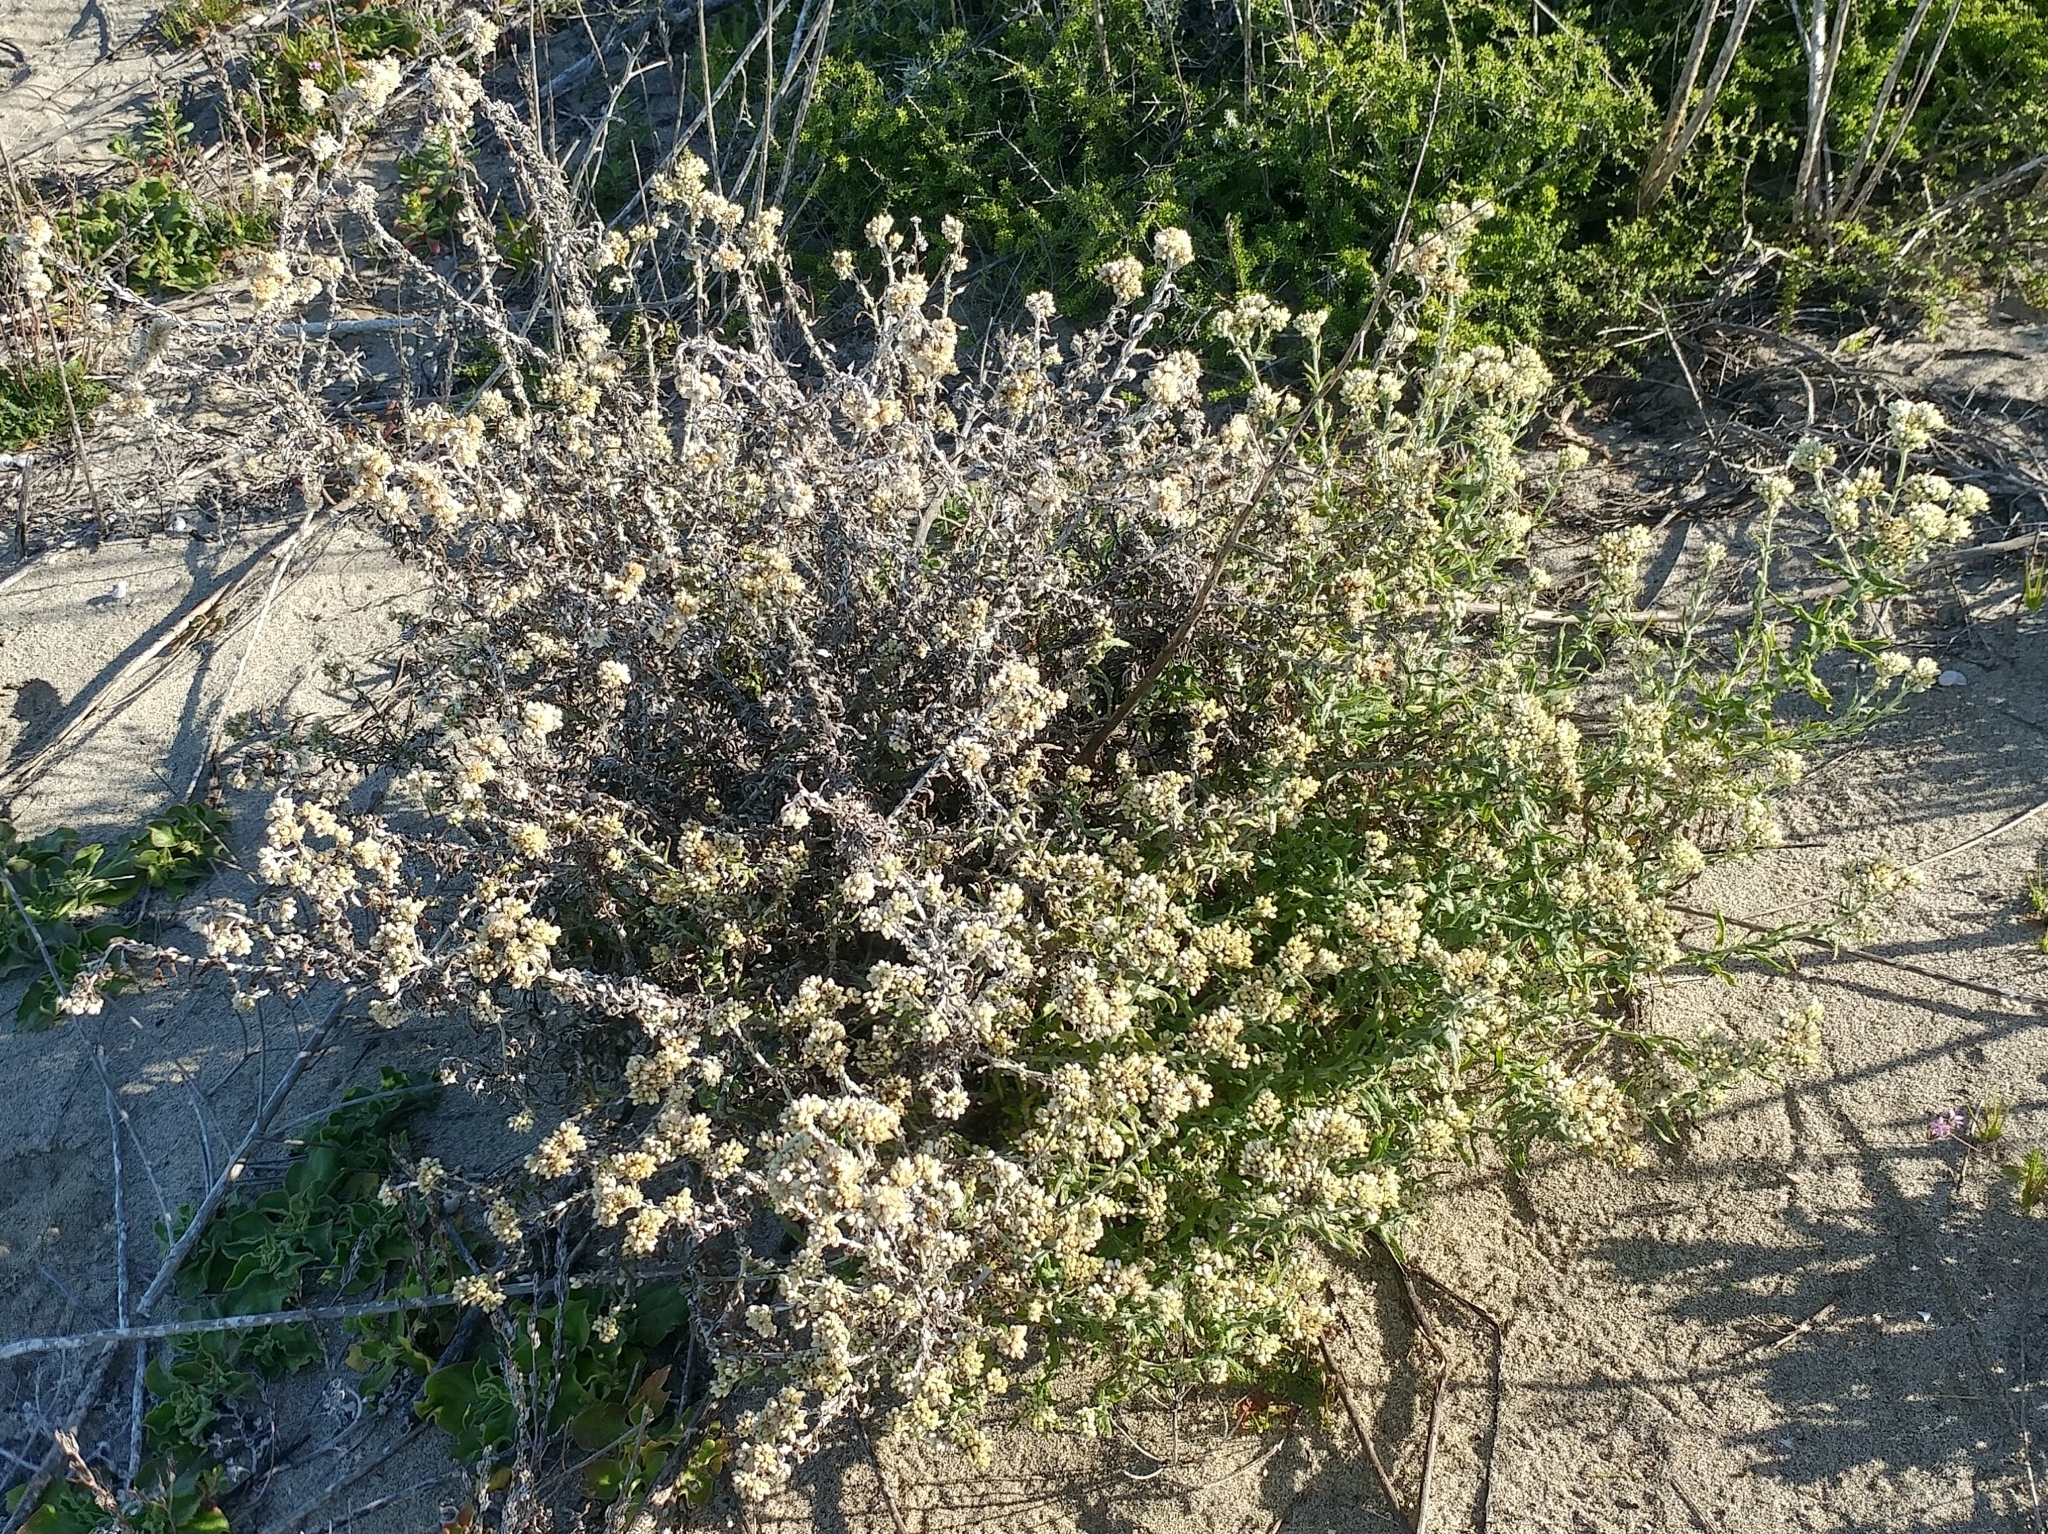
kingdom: Plantae
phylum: Tracheophyta
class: Magnoliopsida
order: Asterales
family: Asteraceae
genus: Pseudognaphalium
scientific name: Pseudognaphalium biolettii
